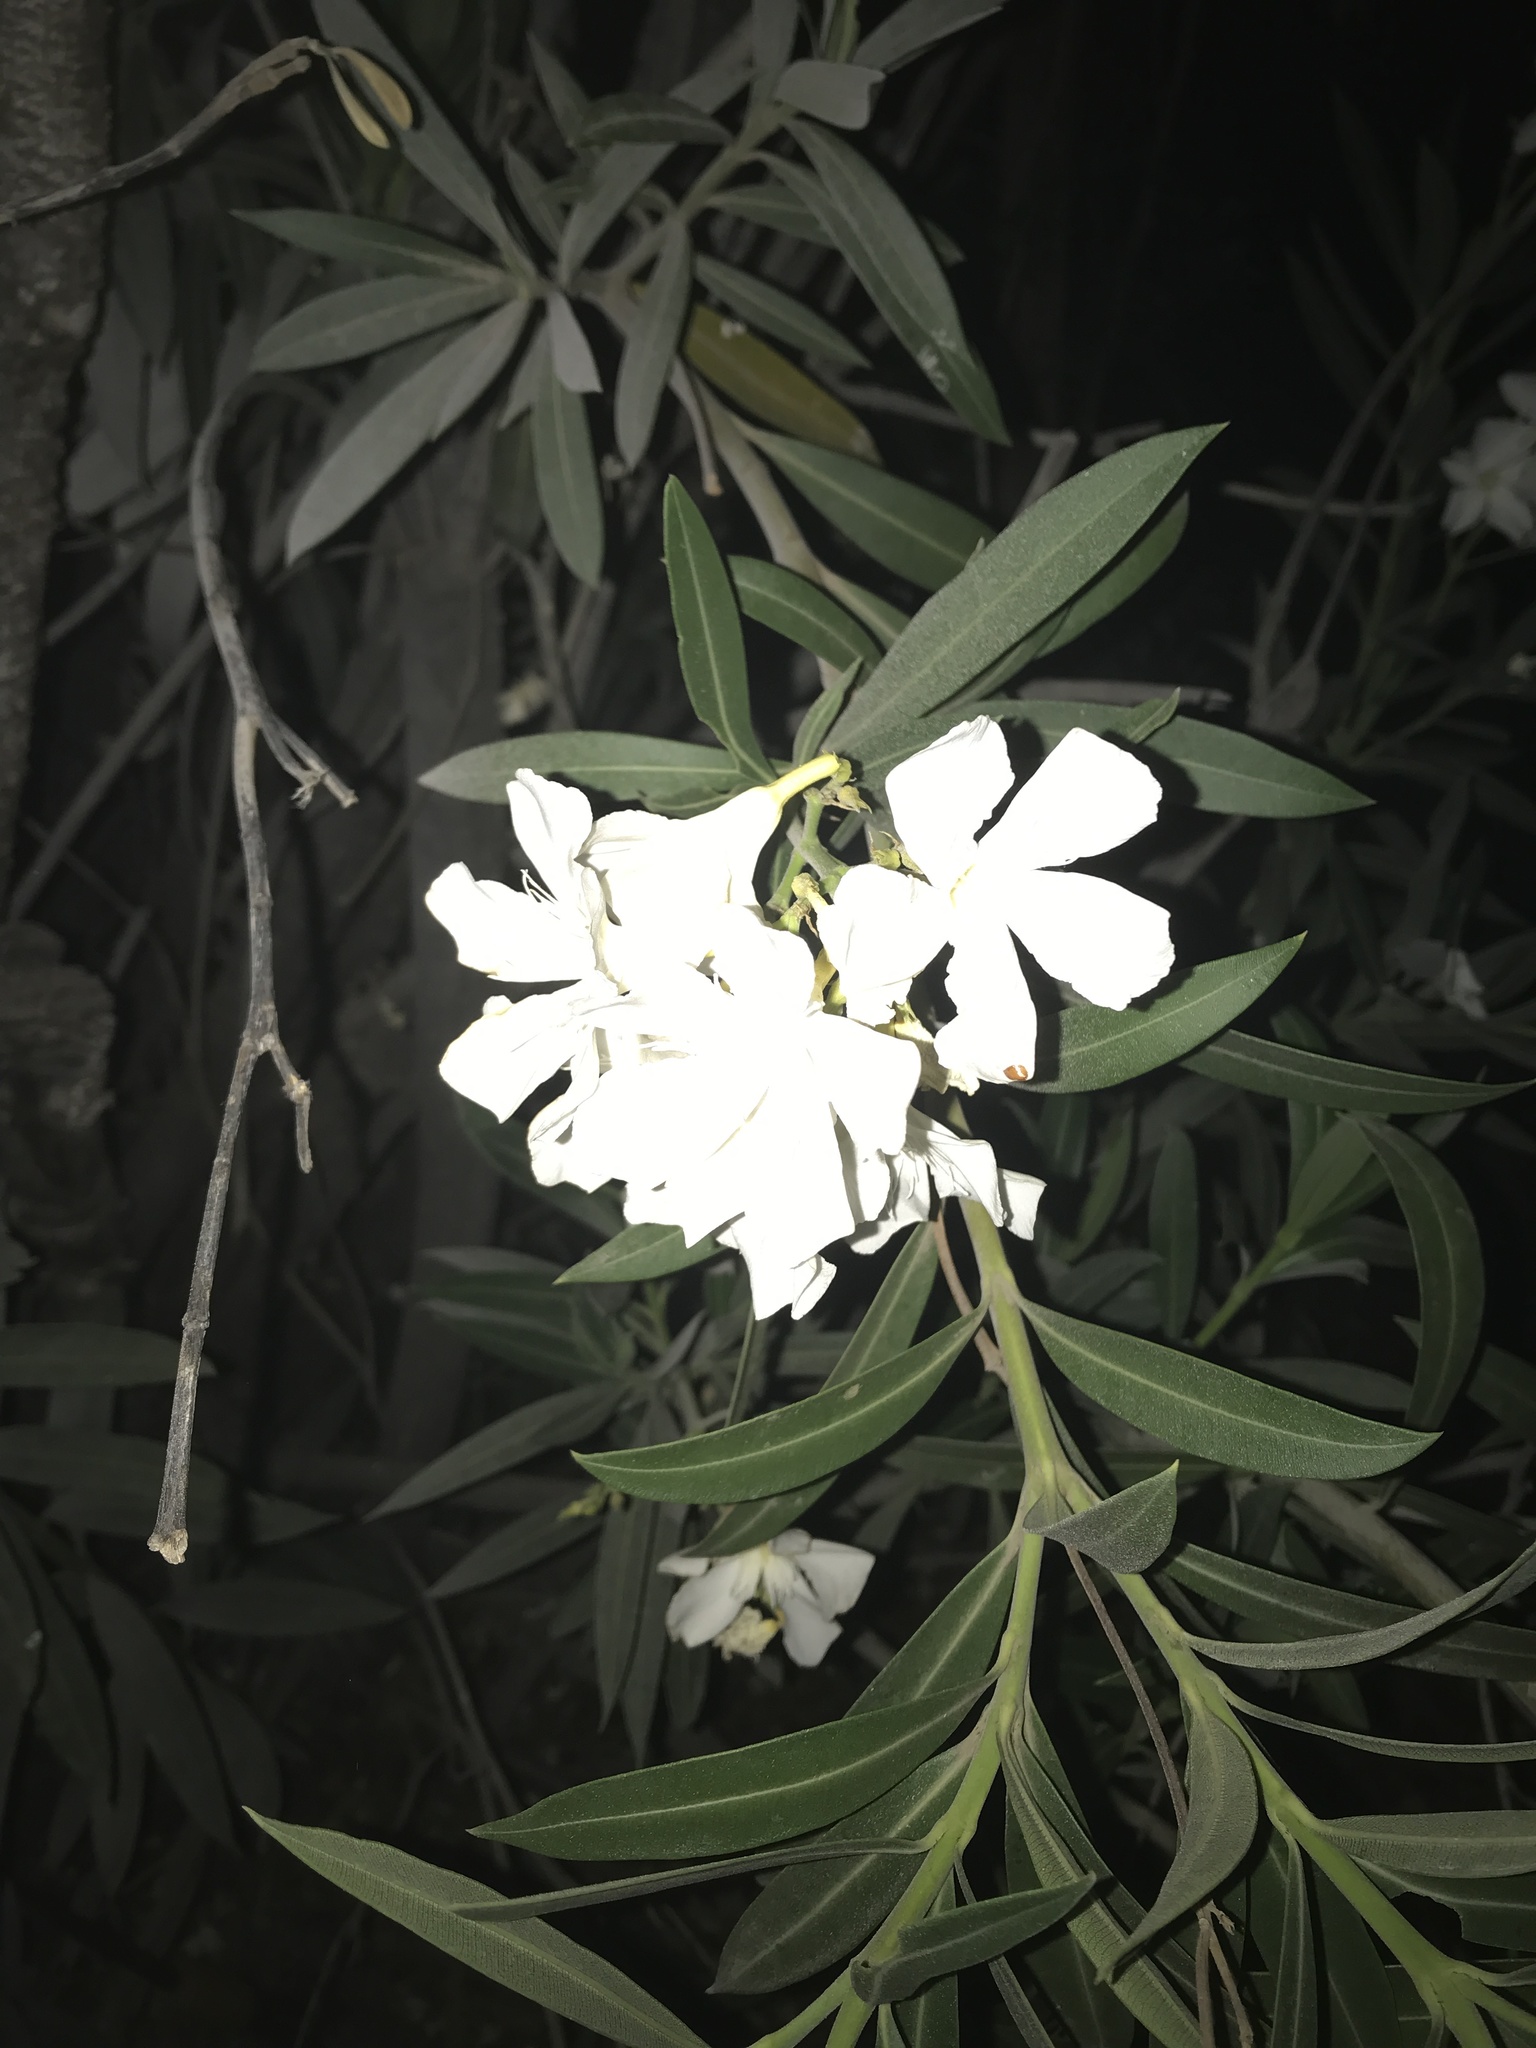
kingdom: Plantae
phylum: Tracheophyta
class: Magnoliopsida
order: Gentianales
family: Apocynaceae
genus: Nerium
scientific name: Nerium oleander
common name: Oleander
